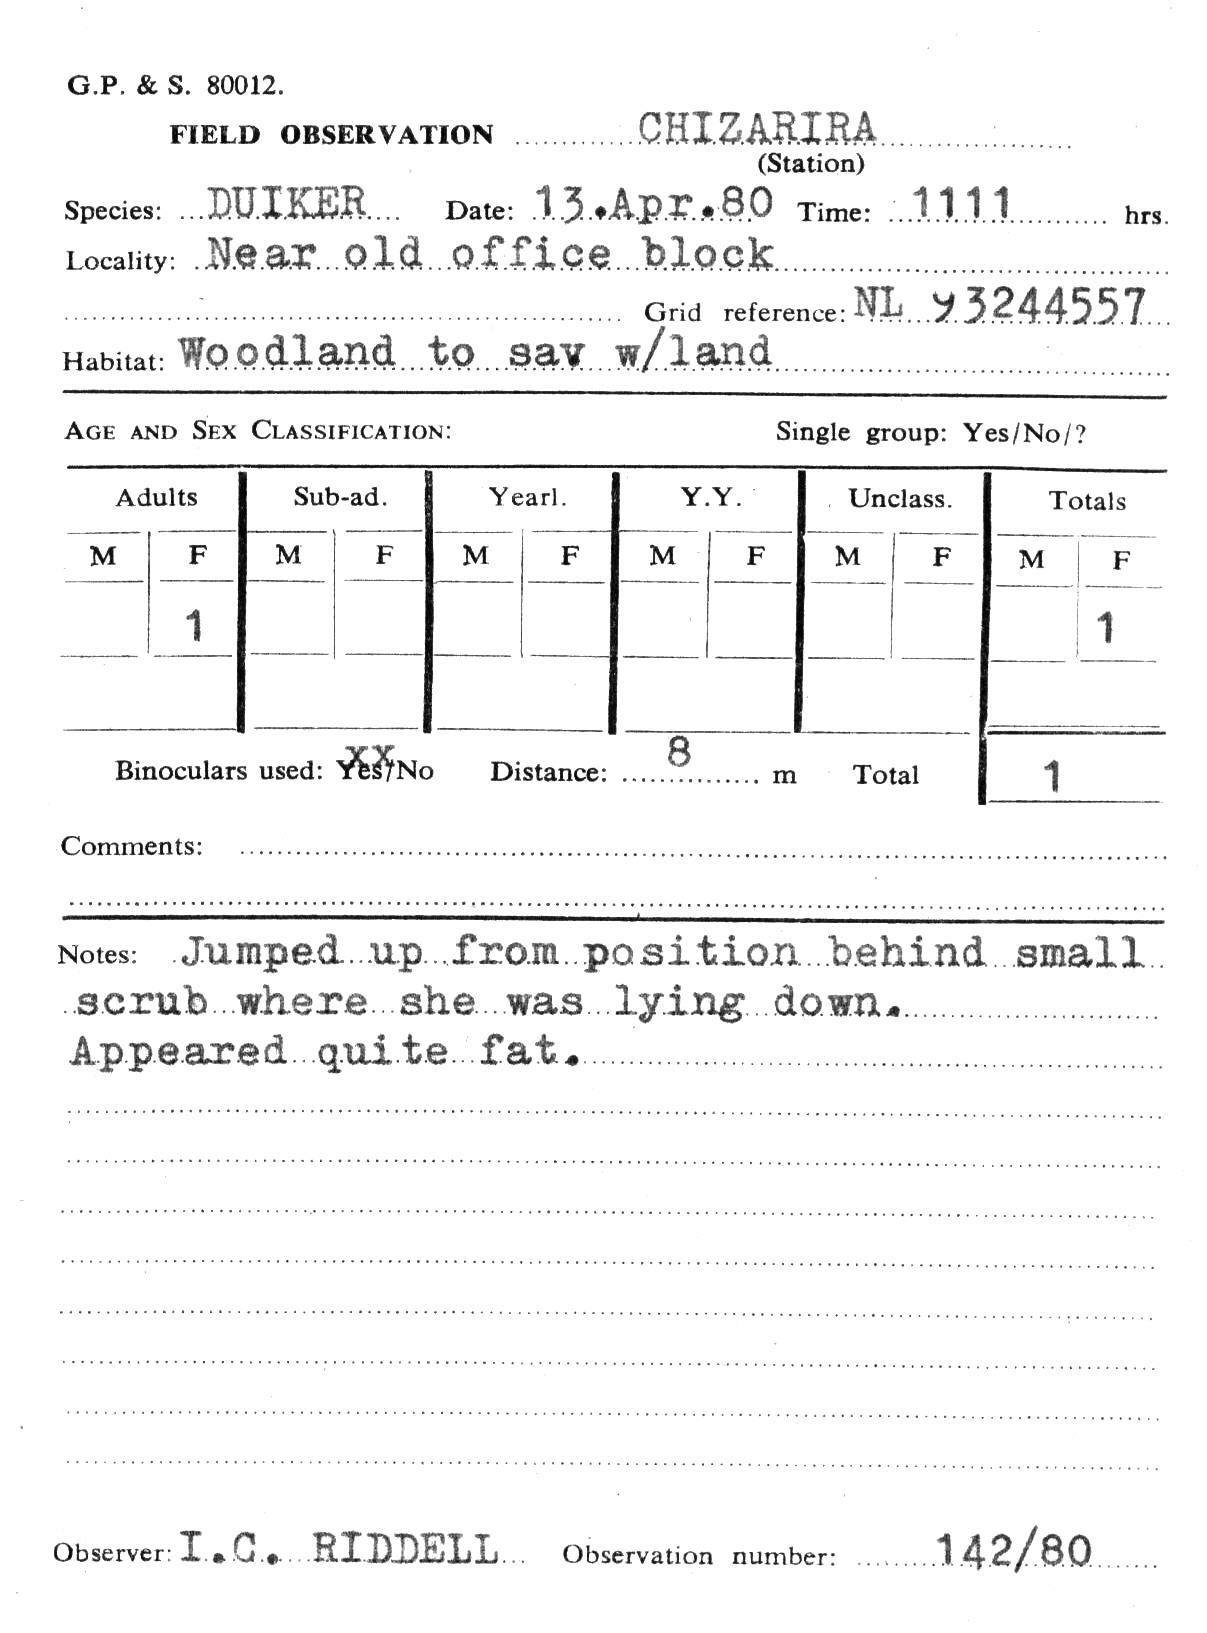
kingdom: Animalia
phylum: Chordata
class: Mammalia
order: Artiodactyla
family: Bovidae
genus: Sylvicapra
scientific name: Sylvicapra grimmia
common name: Bush duiker
